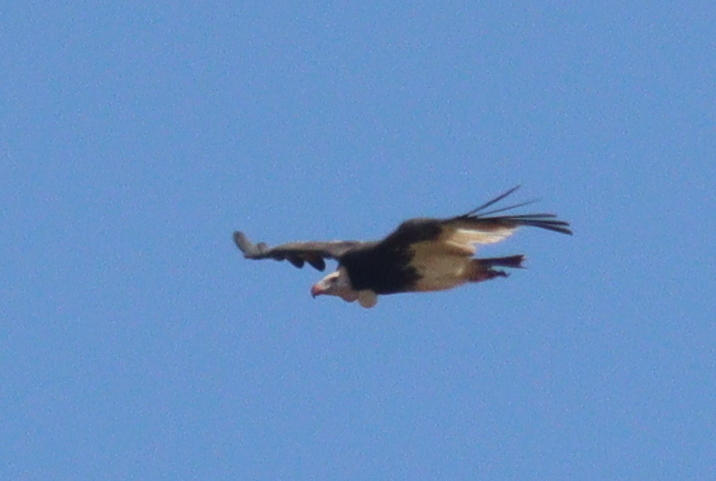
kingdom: Animalia
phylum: Chordata
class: Aves
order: Accipitriformes
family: Accipitridae
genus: Trigonoceps
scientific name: Trigonoceps occipitalis
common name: White-headed vulture
